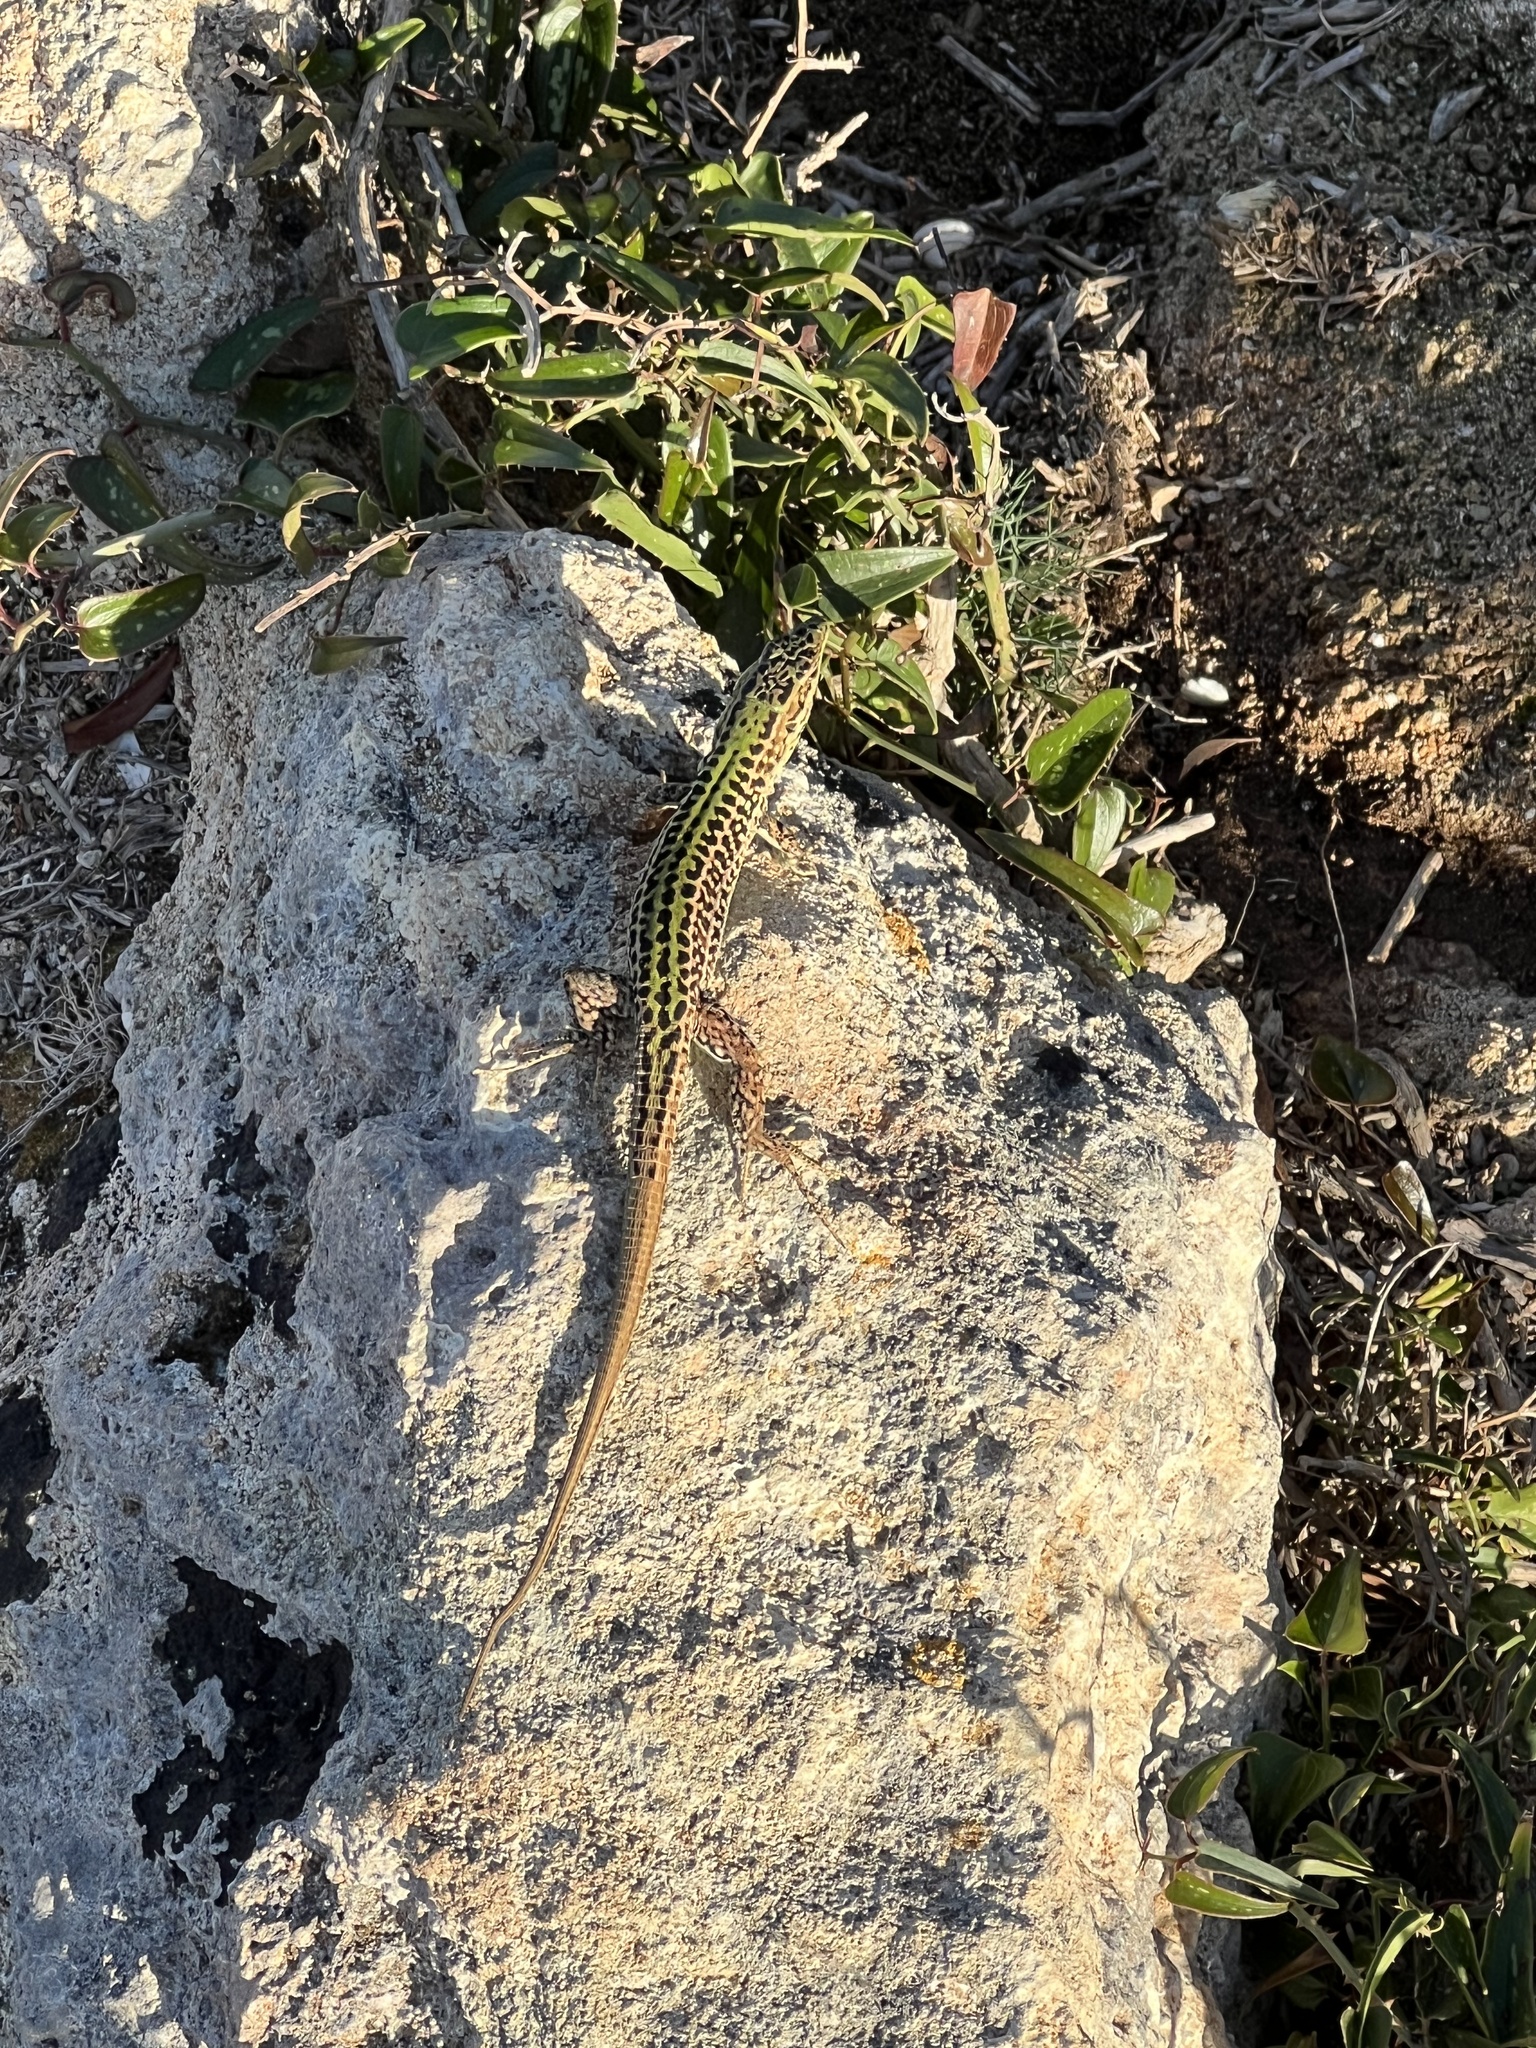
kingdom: Animalia
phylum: Chordata
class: Squamata
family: Lacertidae
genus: Podarcis
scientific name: Podarcis waglerianus
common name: Sicilian wall lizard
